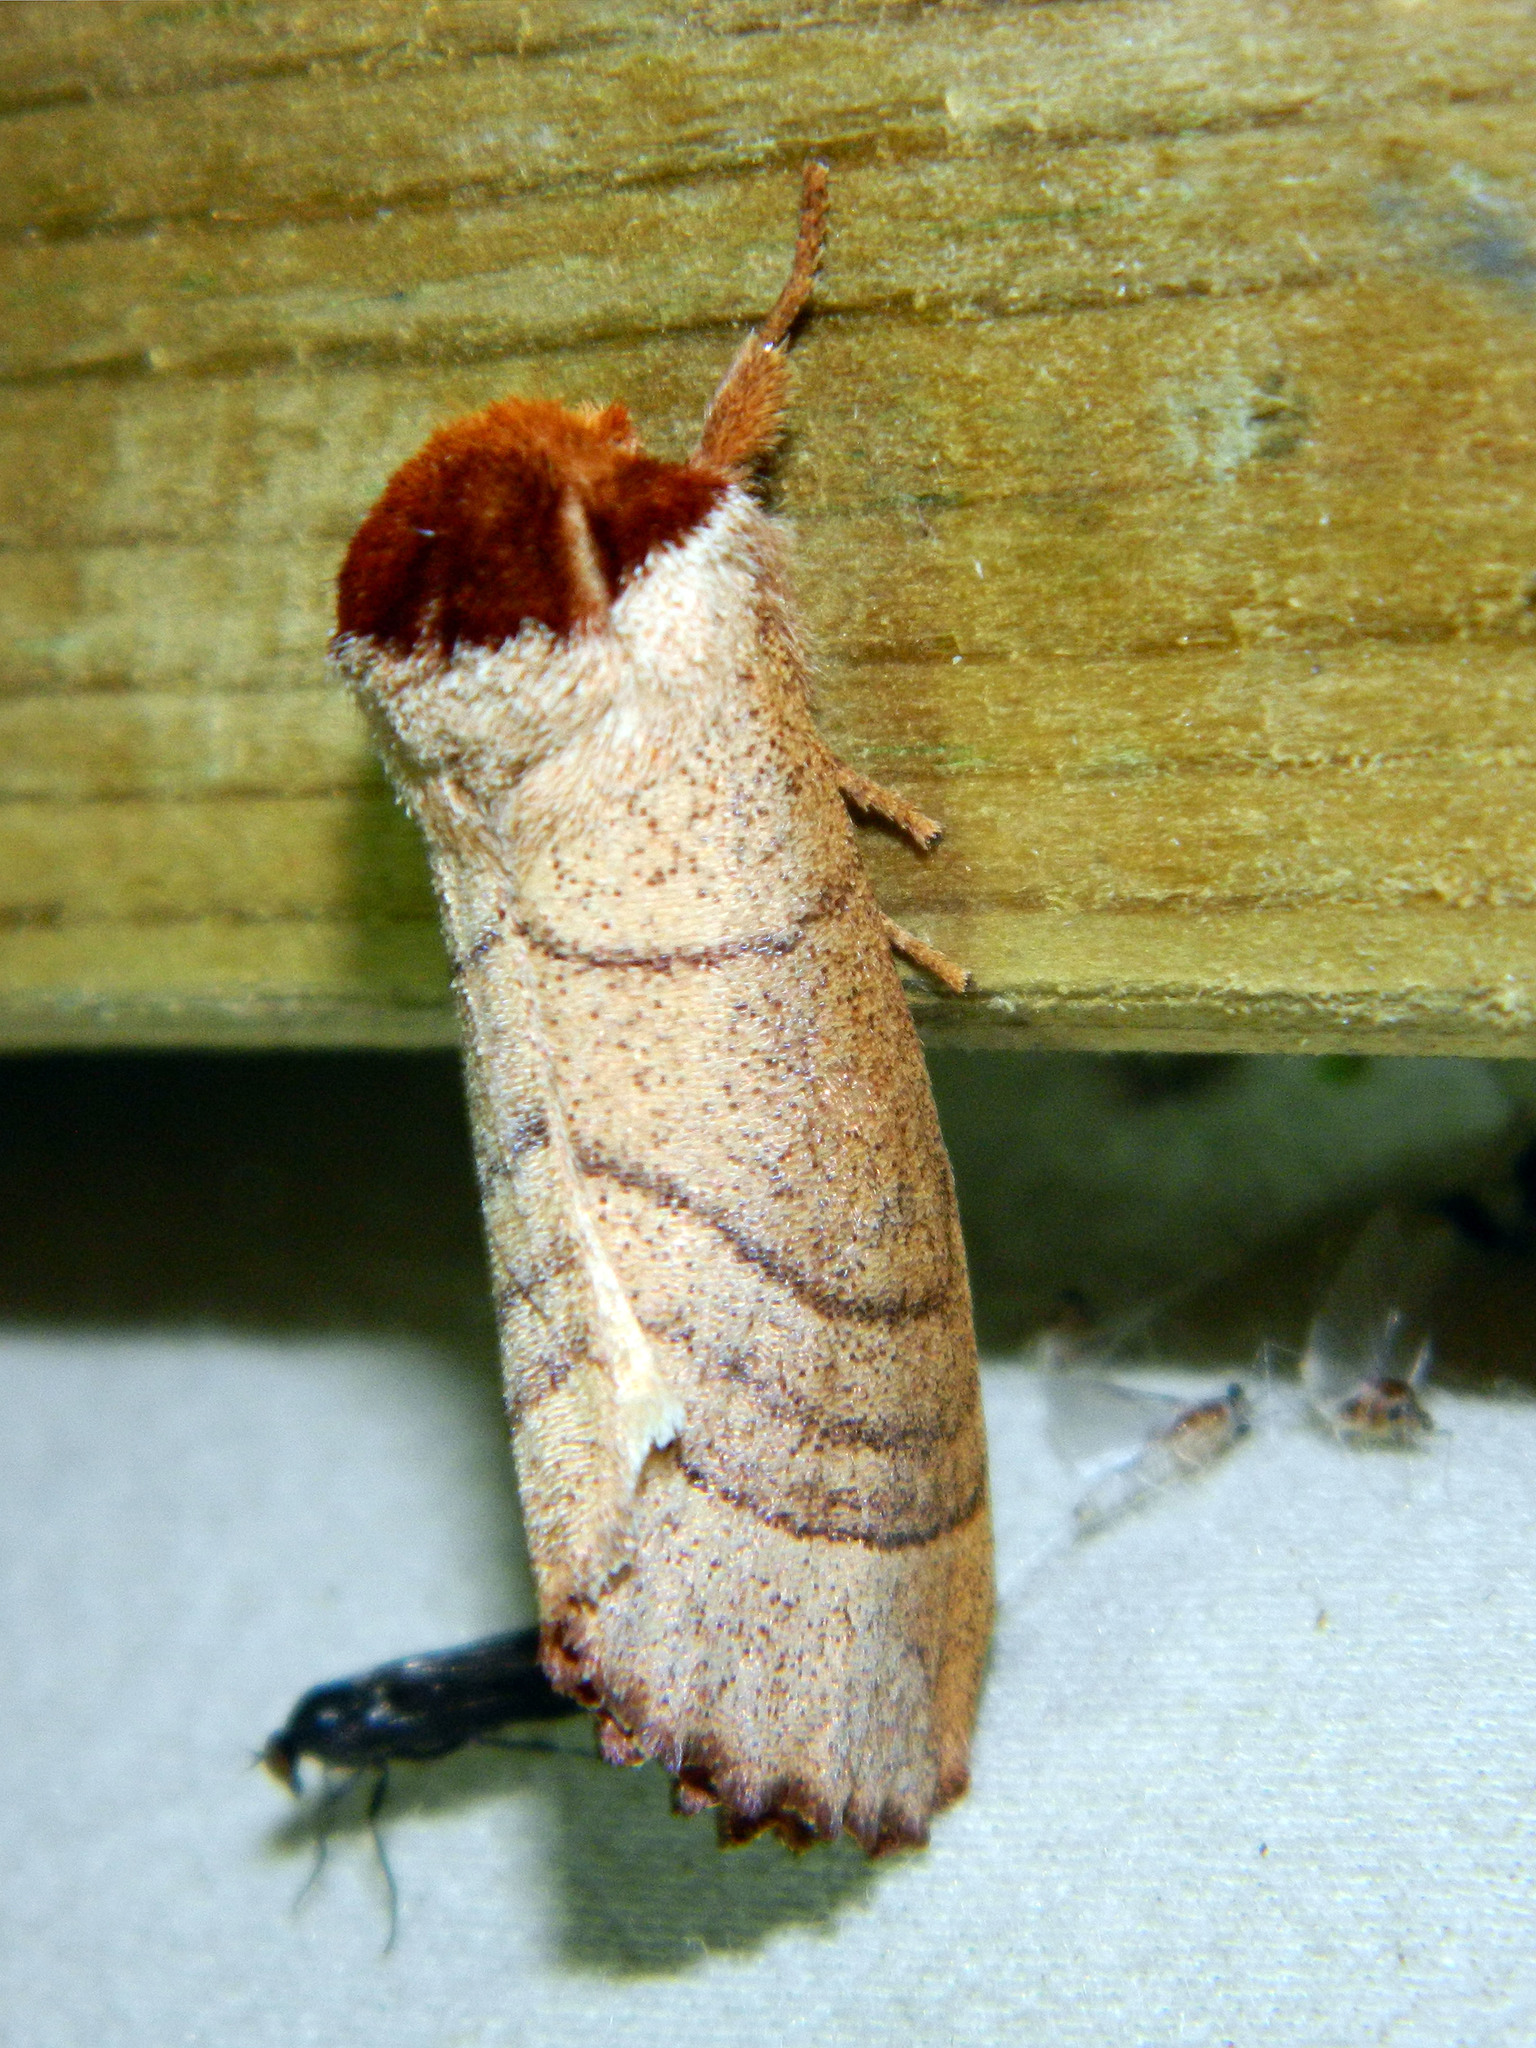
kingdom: Animalia
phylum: Arthropoda
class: Insecta
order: Lepidoptera
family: Notodontidae
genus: Datana
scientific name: Datana ministra
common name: Yellow-necked caterpillar moth
